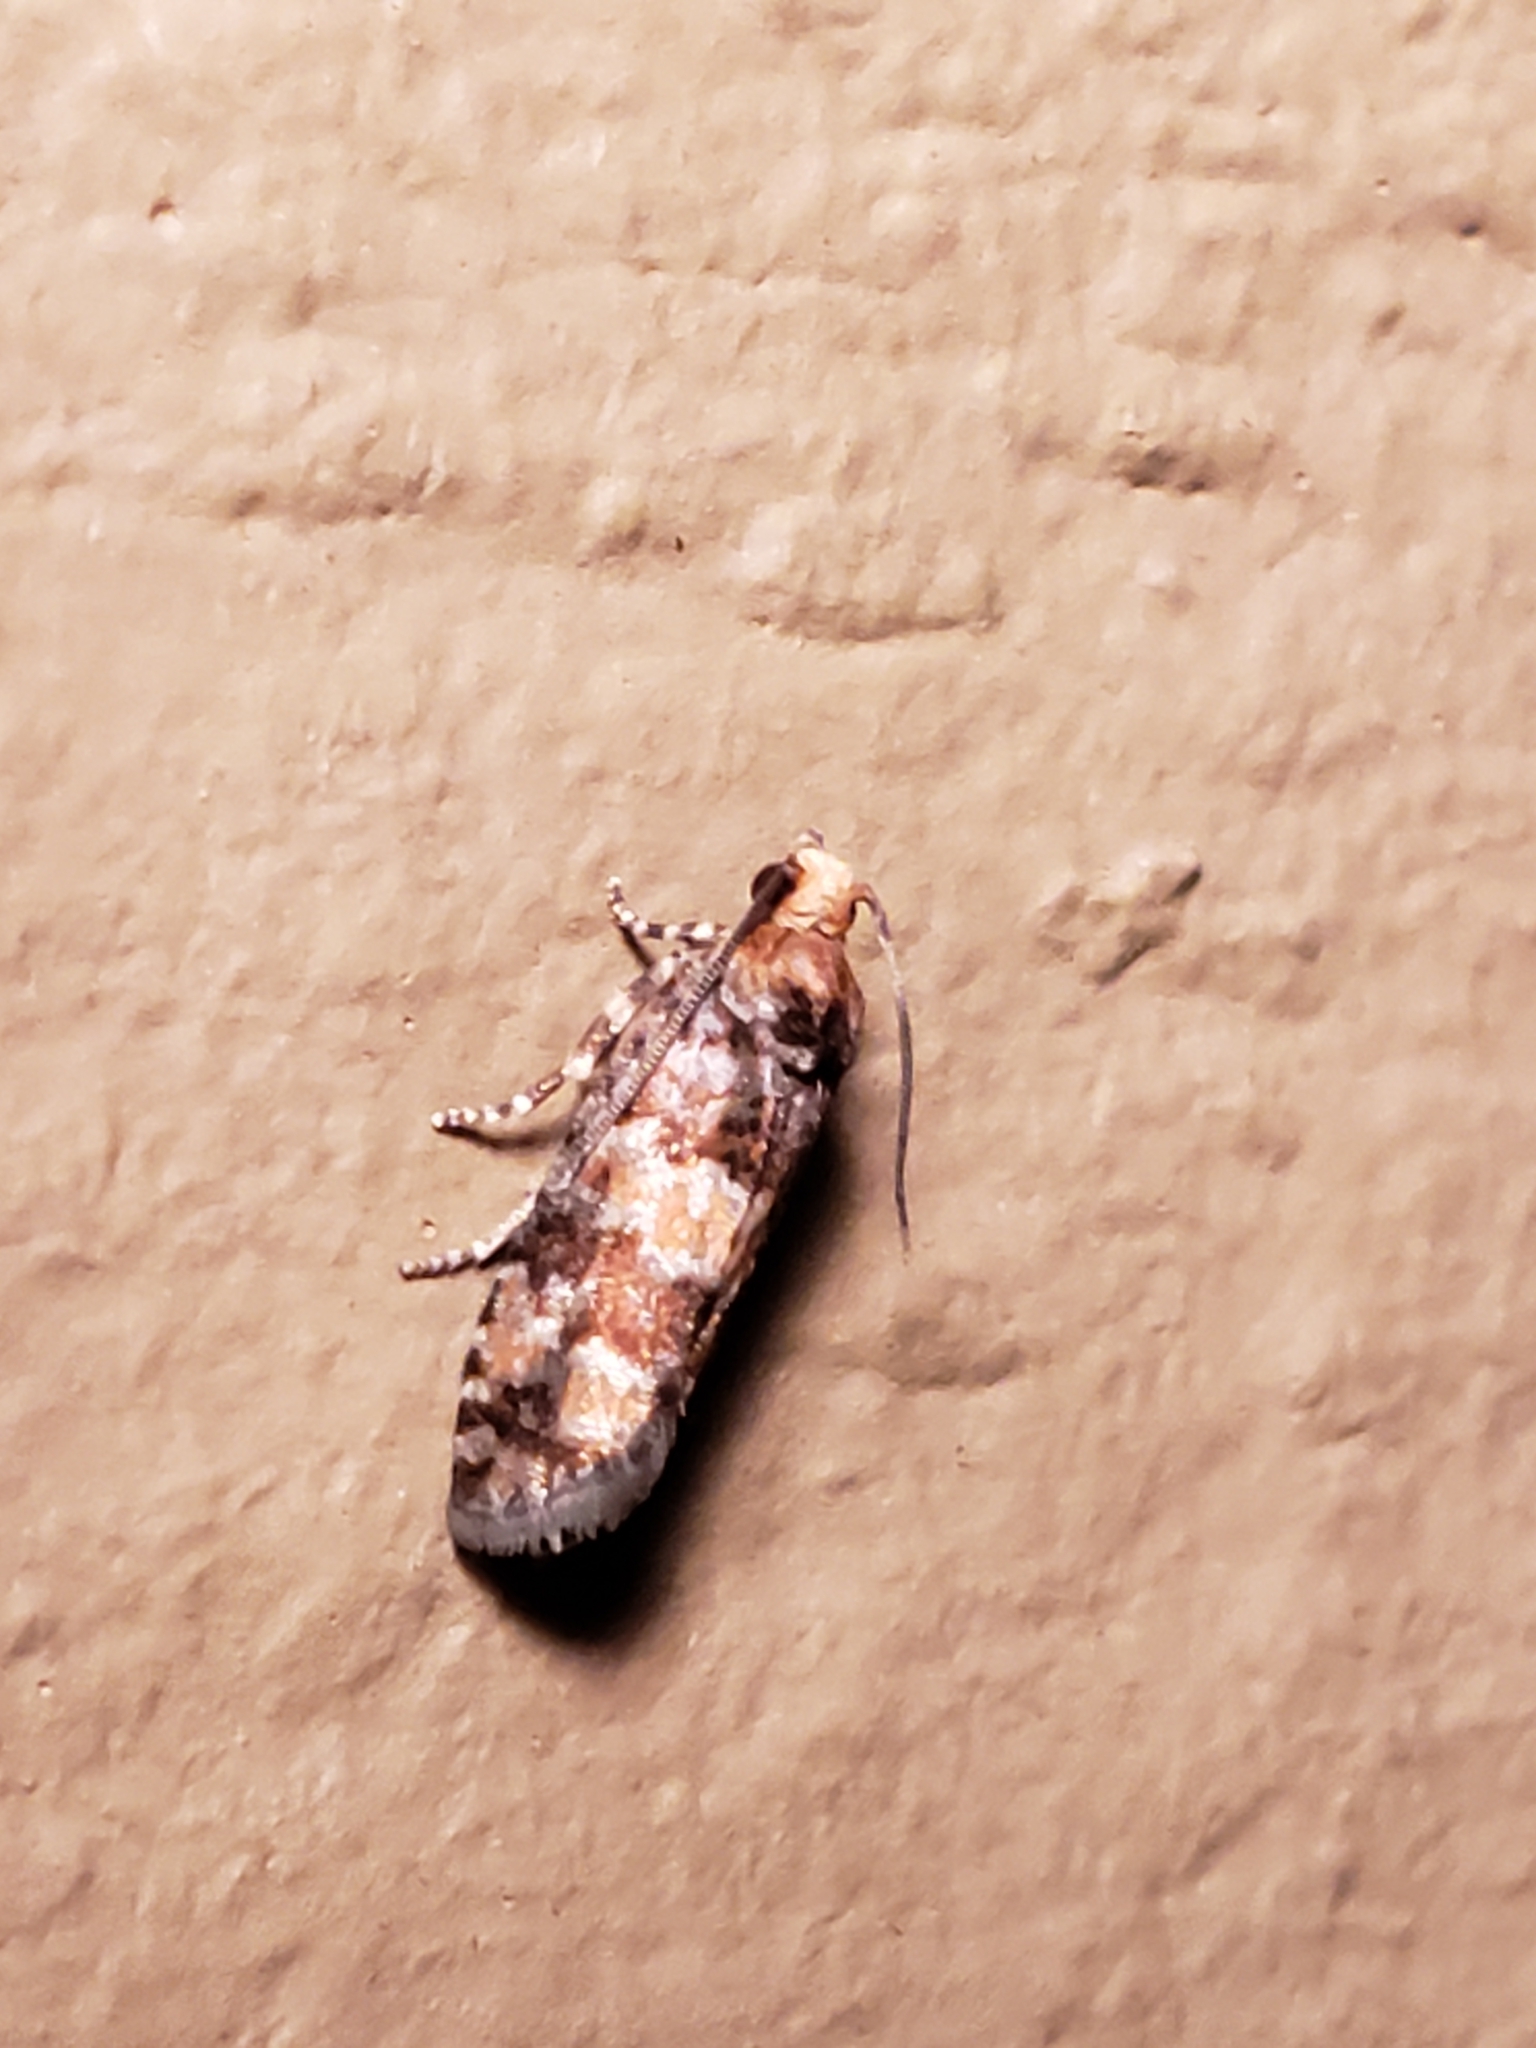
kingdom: Animalia
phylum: Arthropoda
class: Insecta
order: Lepidoptera
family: Tortricidae
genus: Eucopina
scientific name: Eucopina tocullionana
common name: White pinecone borer moth
